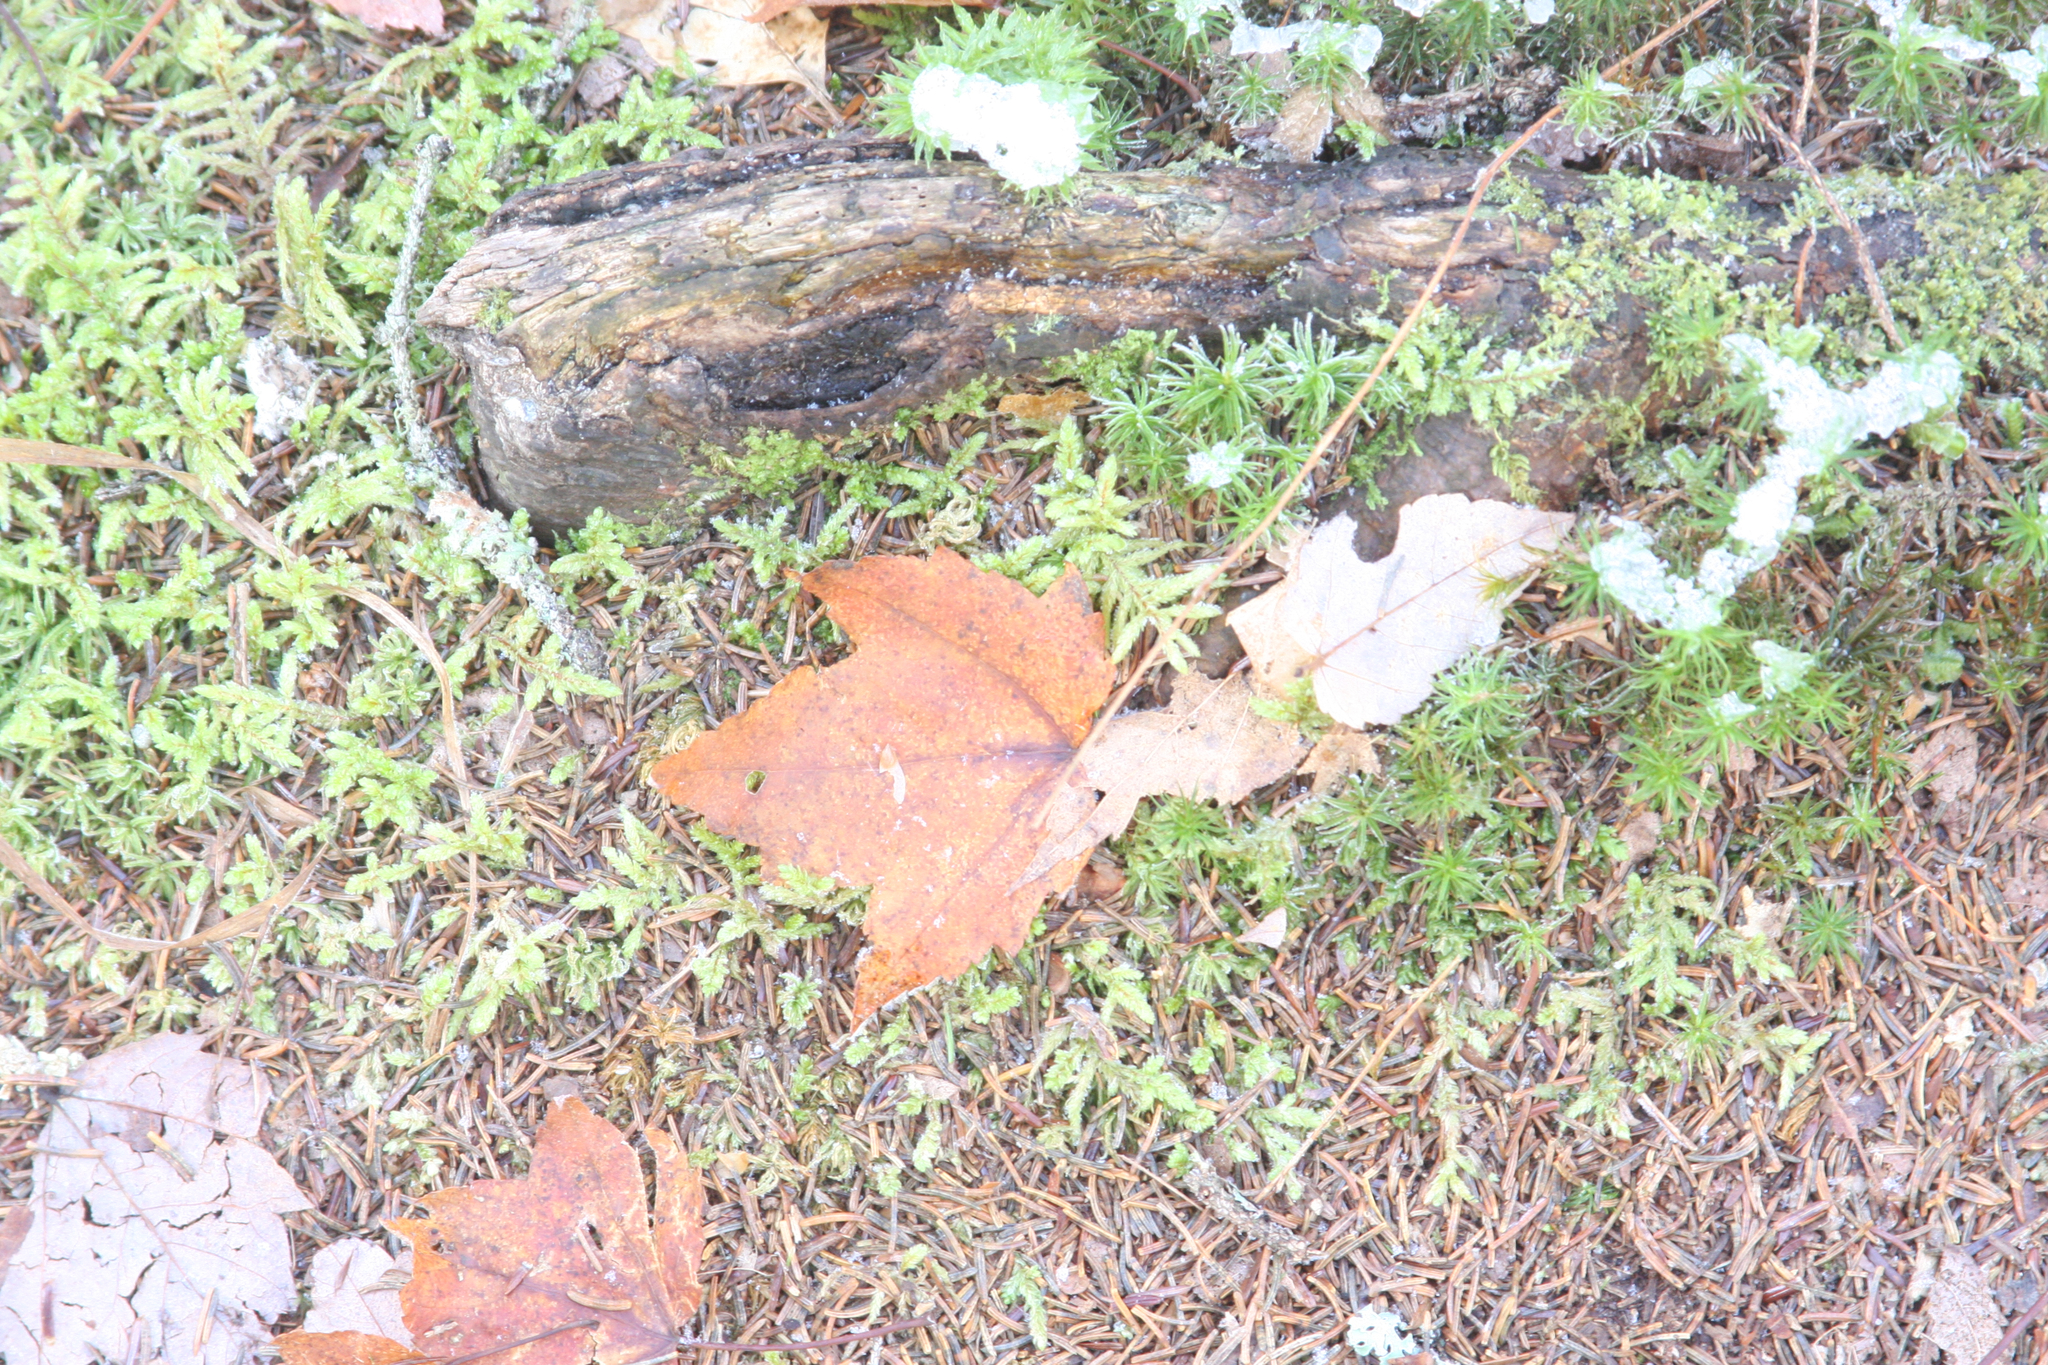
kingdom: Plantae
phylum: Tracheophyta
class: Magnoliopsida
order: Sapindales
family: Sapindaceae
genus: Acer
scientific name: Acer rubrum
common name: Red maple
